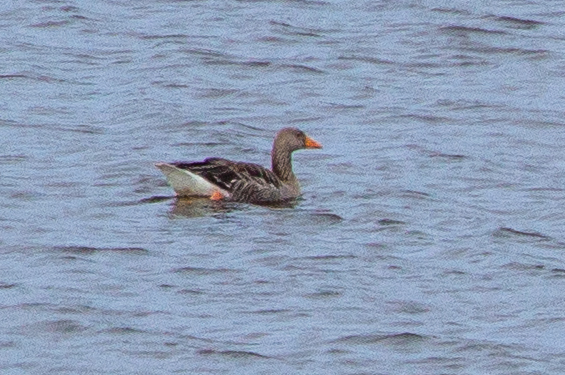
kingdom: Animalia
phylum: Chordata
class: Aves
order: Anseriformes
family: Anatidae
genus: Anser
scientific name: Anser anser
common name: Greylag goose
